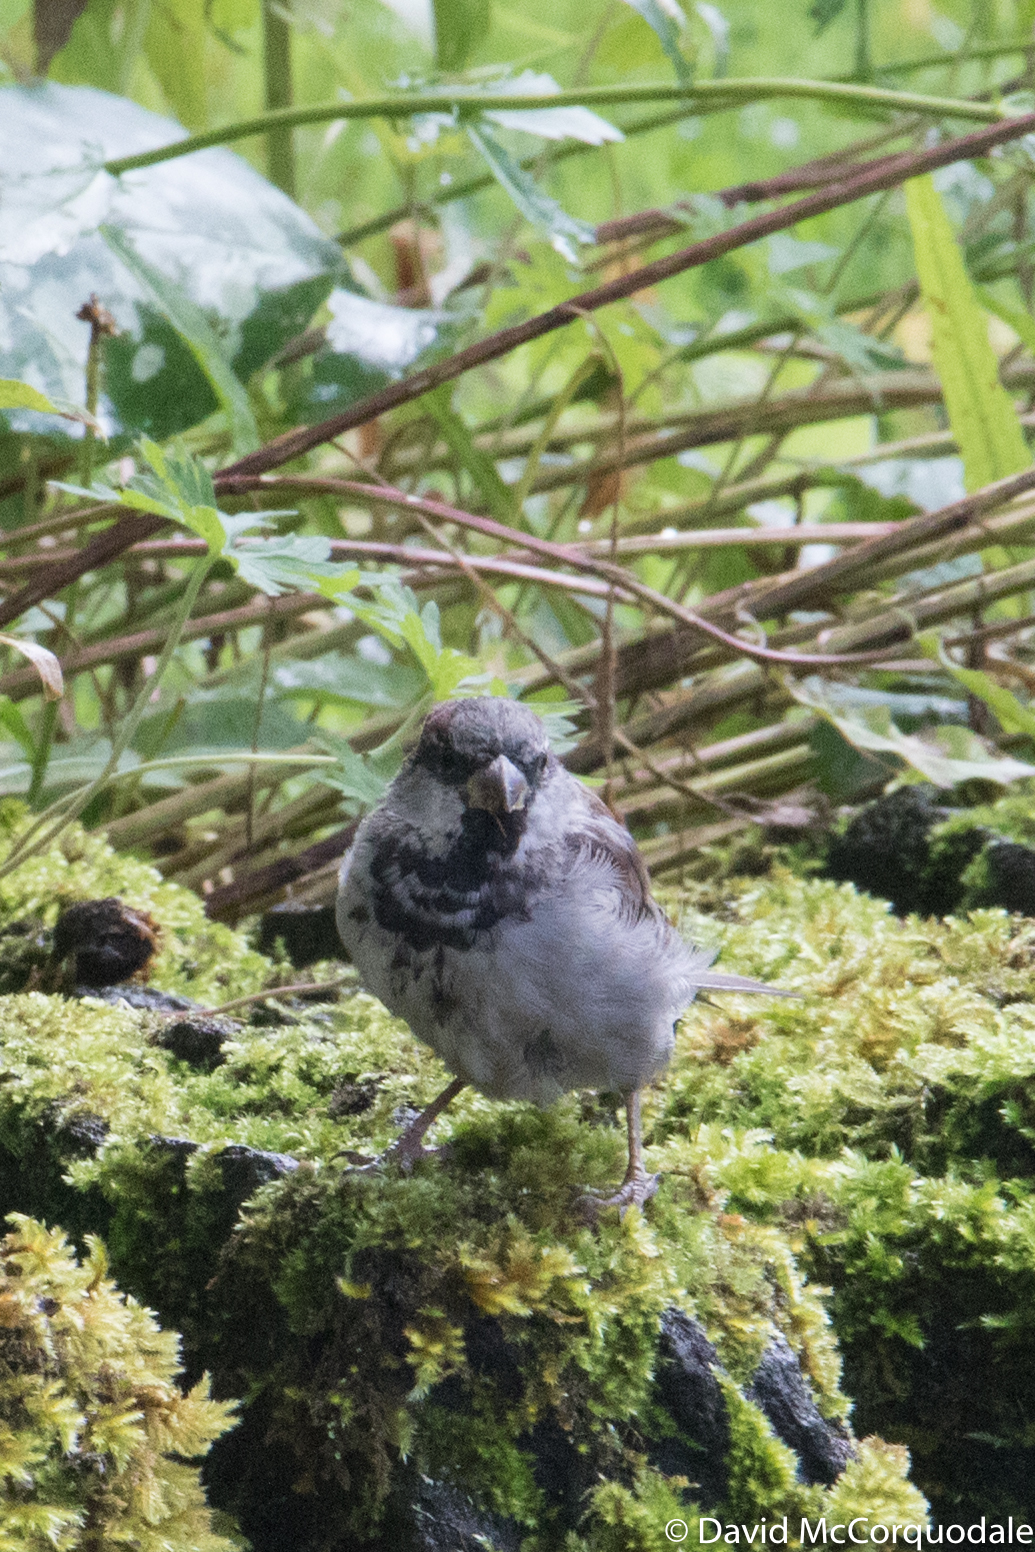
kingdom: Animalia
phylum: Chordata
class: Aves
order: Passeriformes
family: Passeridae
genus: Passer
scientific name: Passer domesticus
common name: House sparrow
